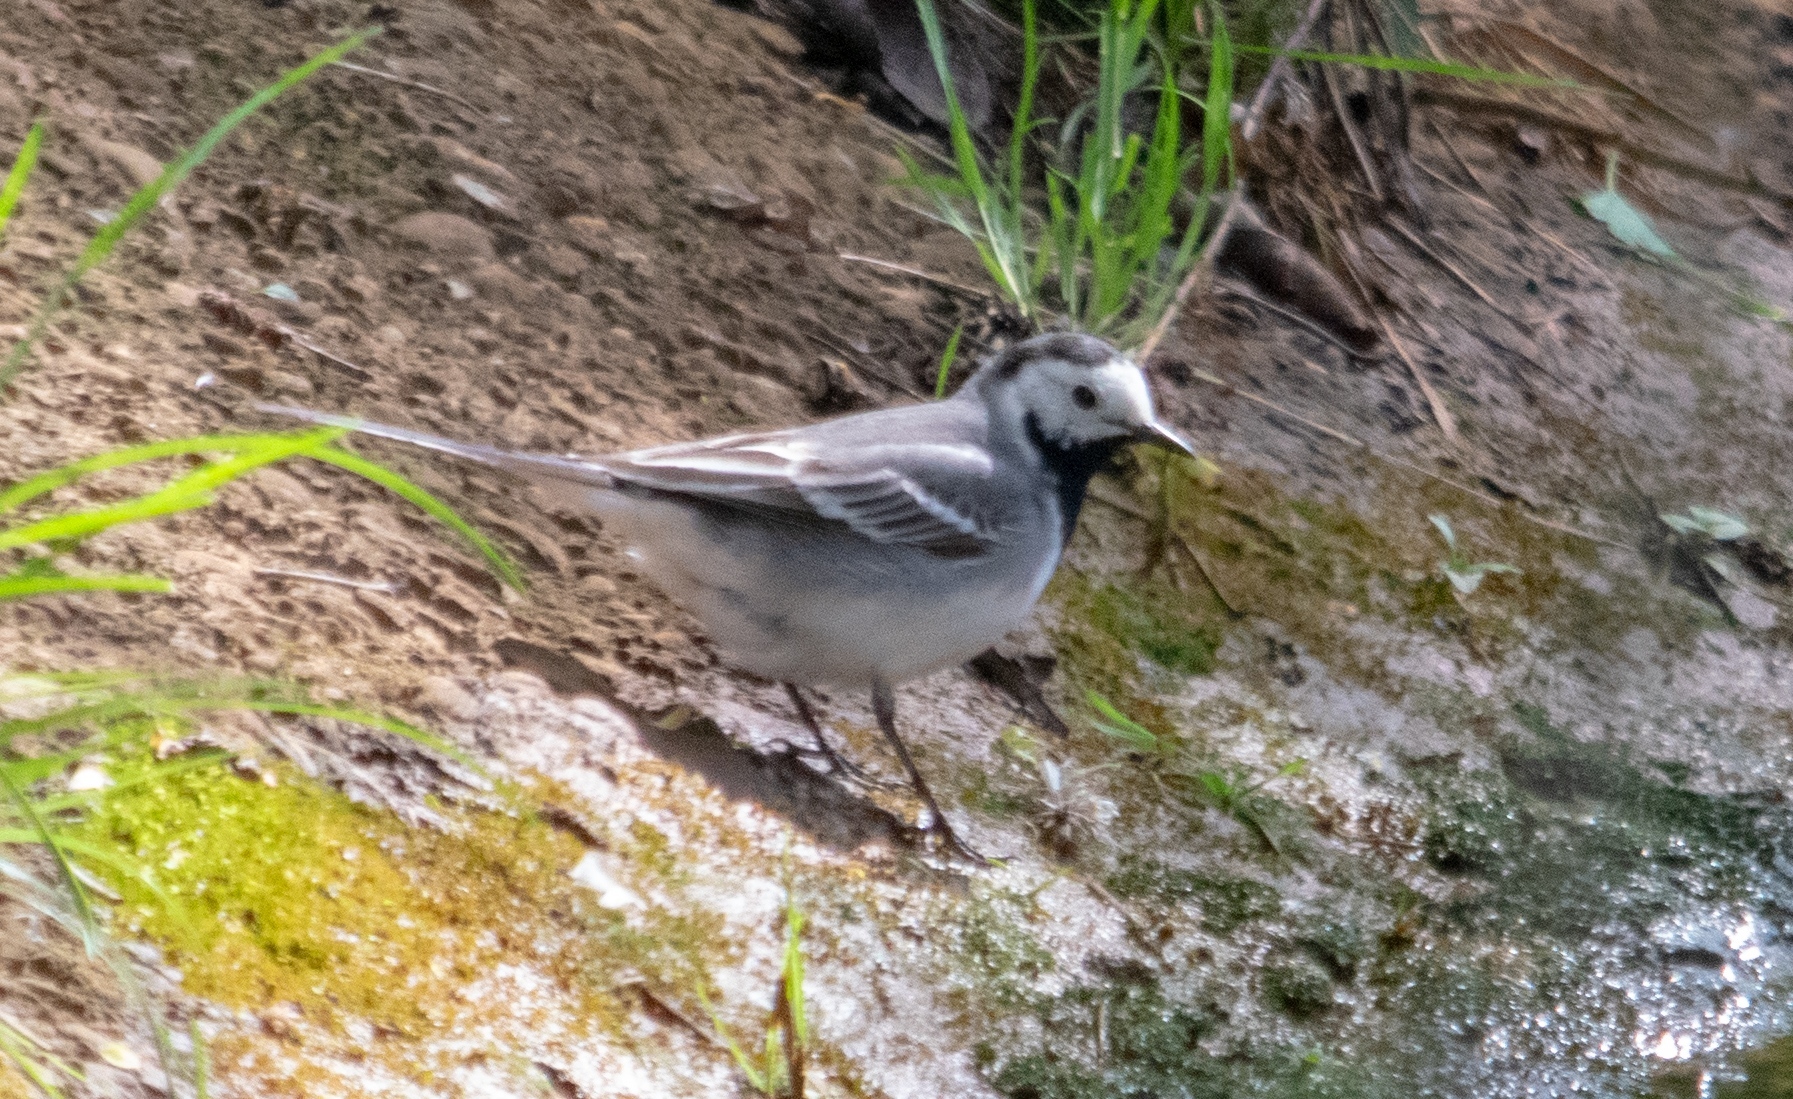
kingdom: Animalia
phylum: Chordata
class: Aves
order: Passeriformes
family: Motacillidae
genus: Motacilla
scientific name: Motacilla alba
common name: White wagtail
